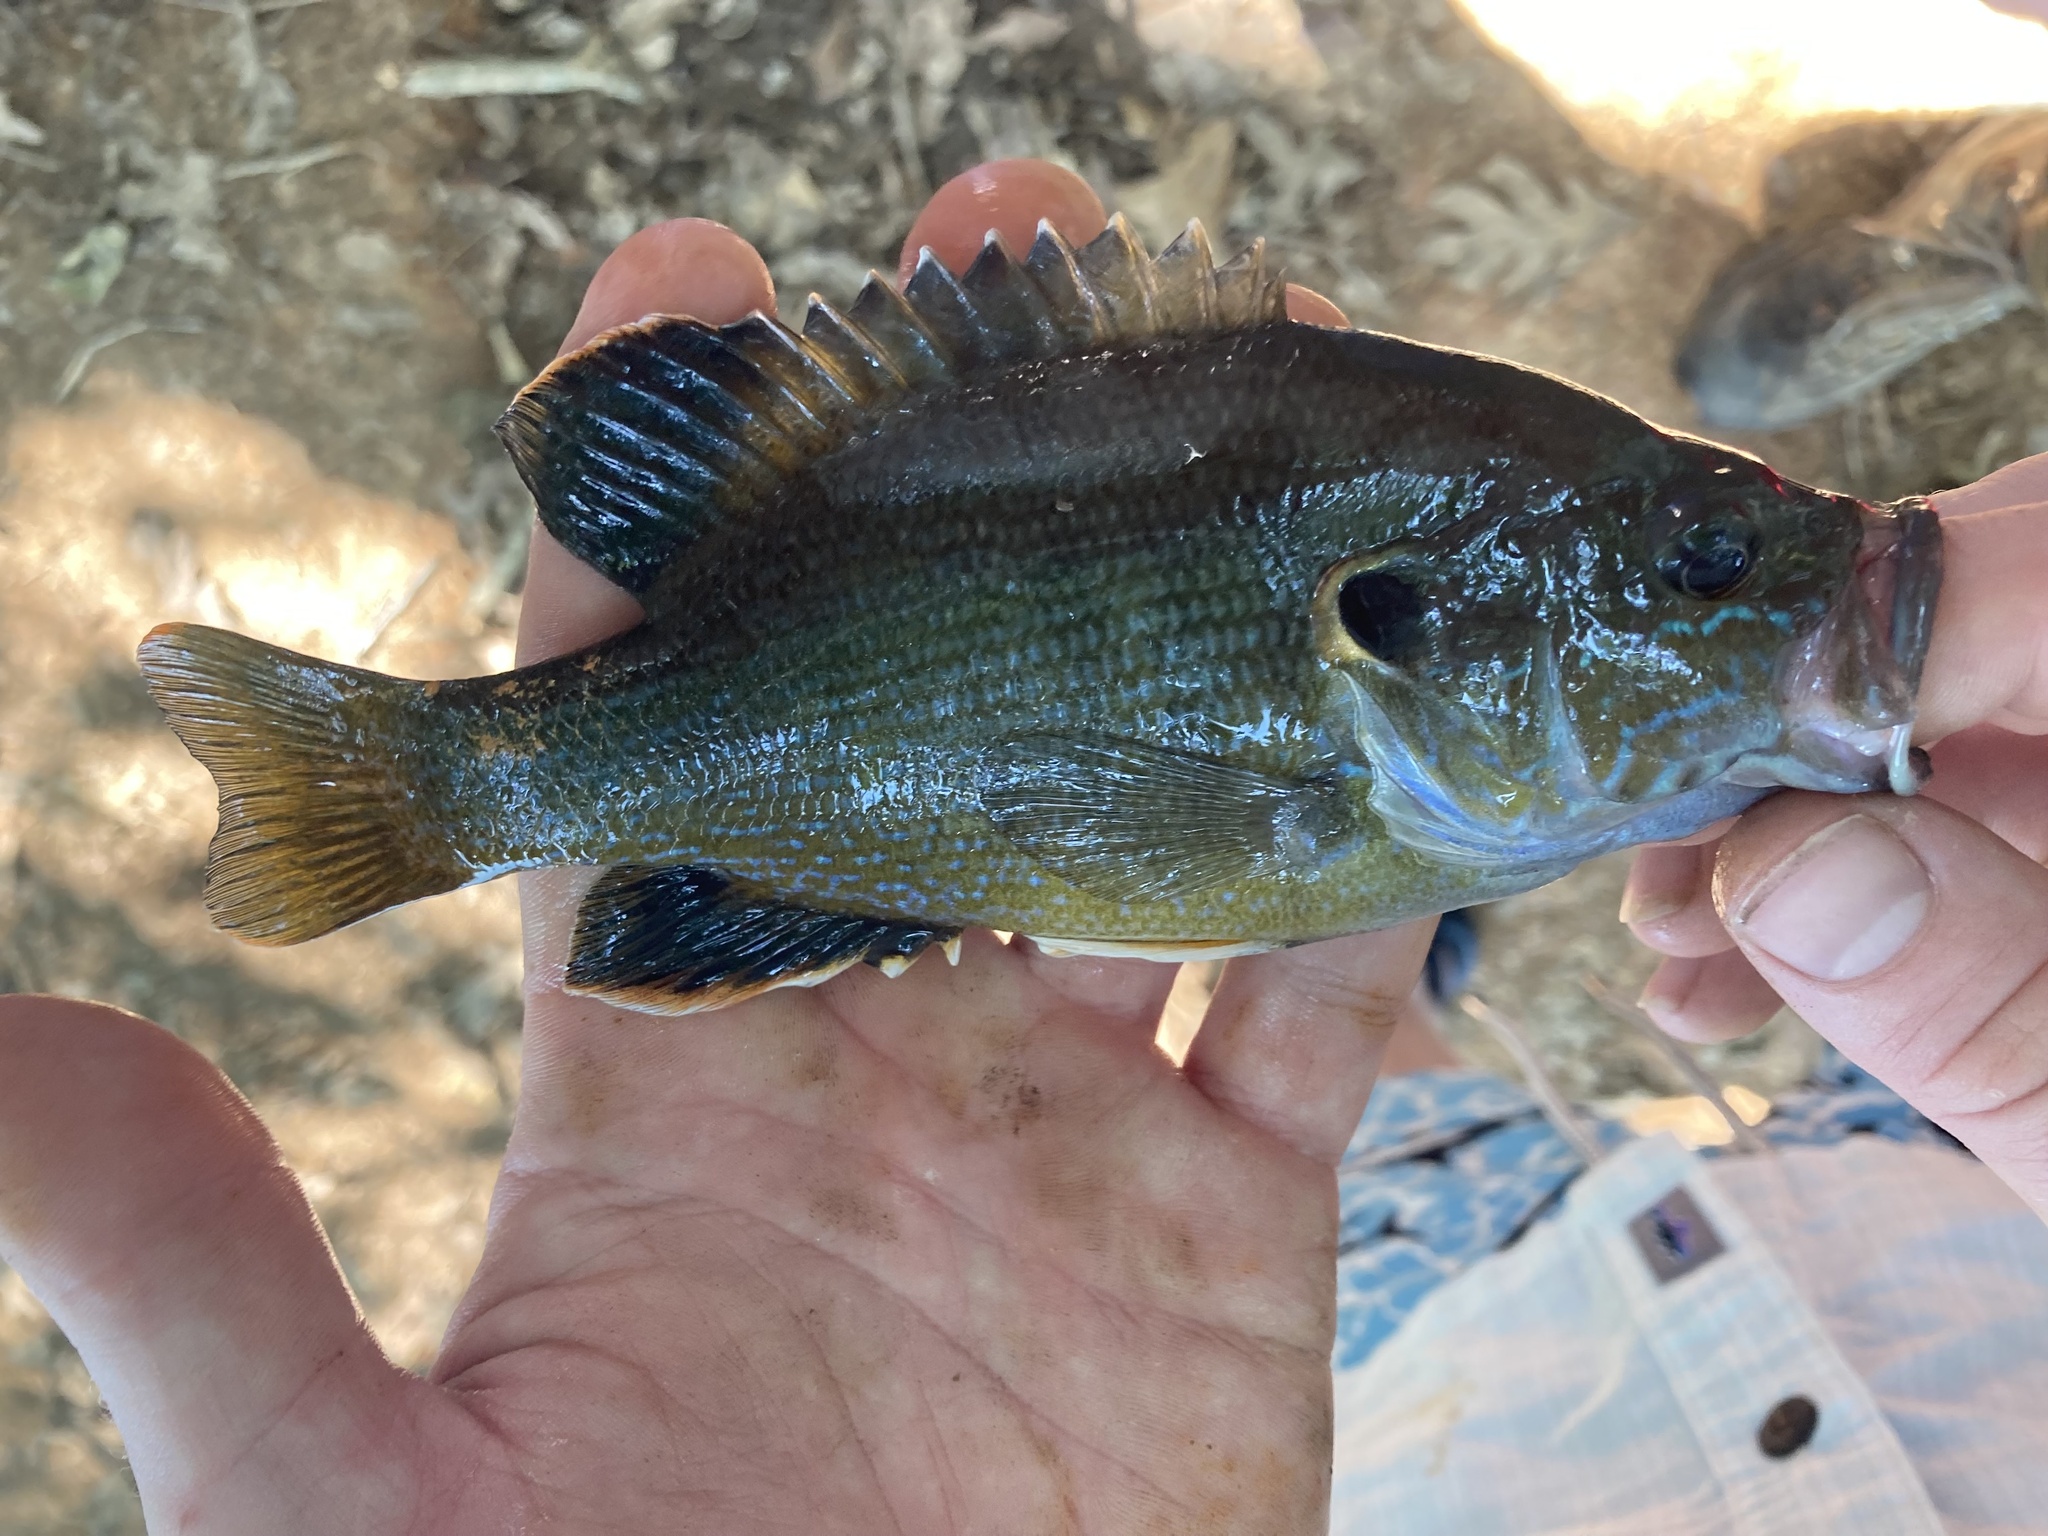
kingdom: Animalia
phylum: Chordata
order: Perciformes
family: Centrarchidae
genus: Lepomis
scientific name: Lepomis cyanellus
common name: Green sunfish
